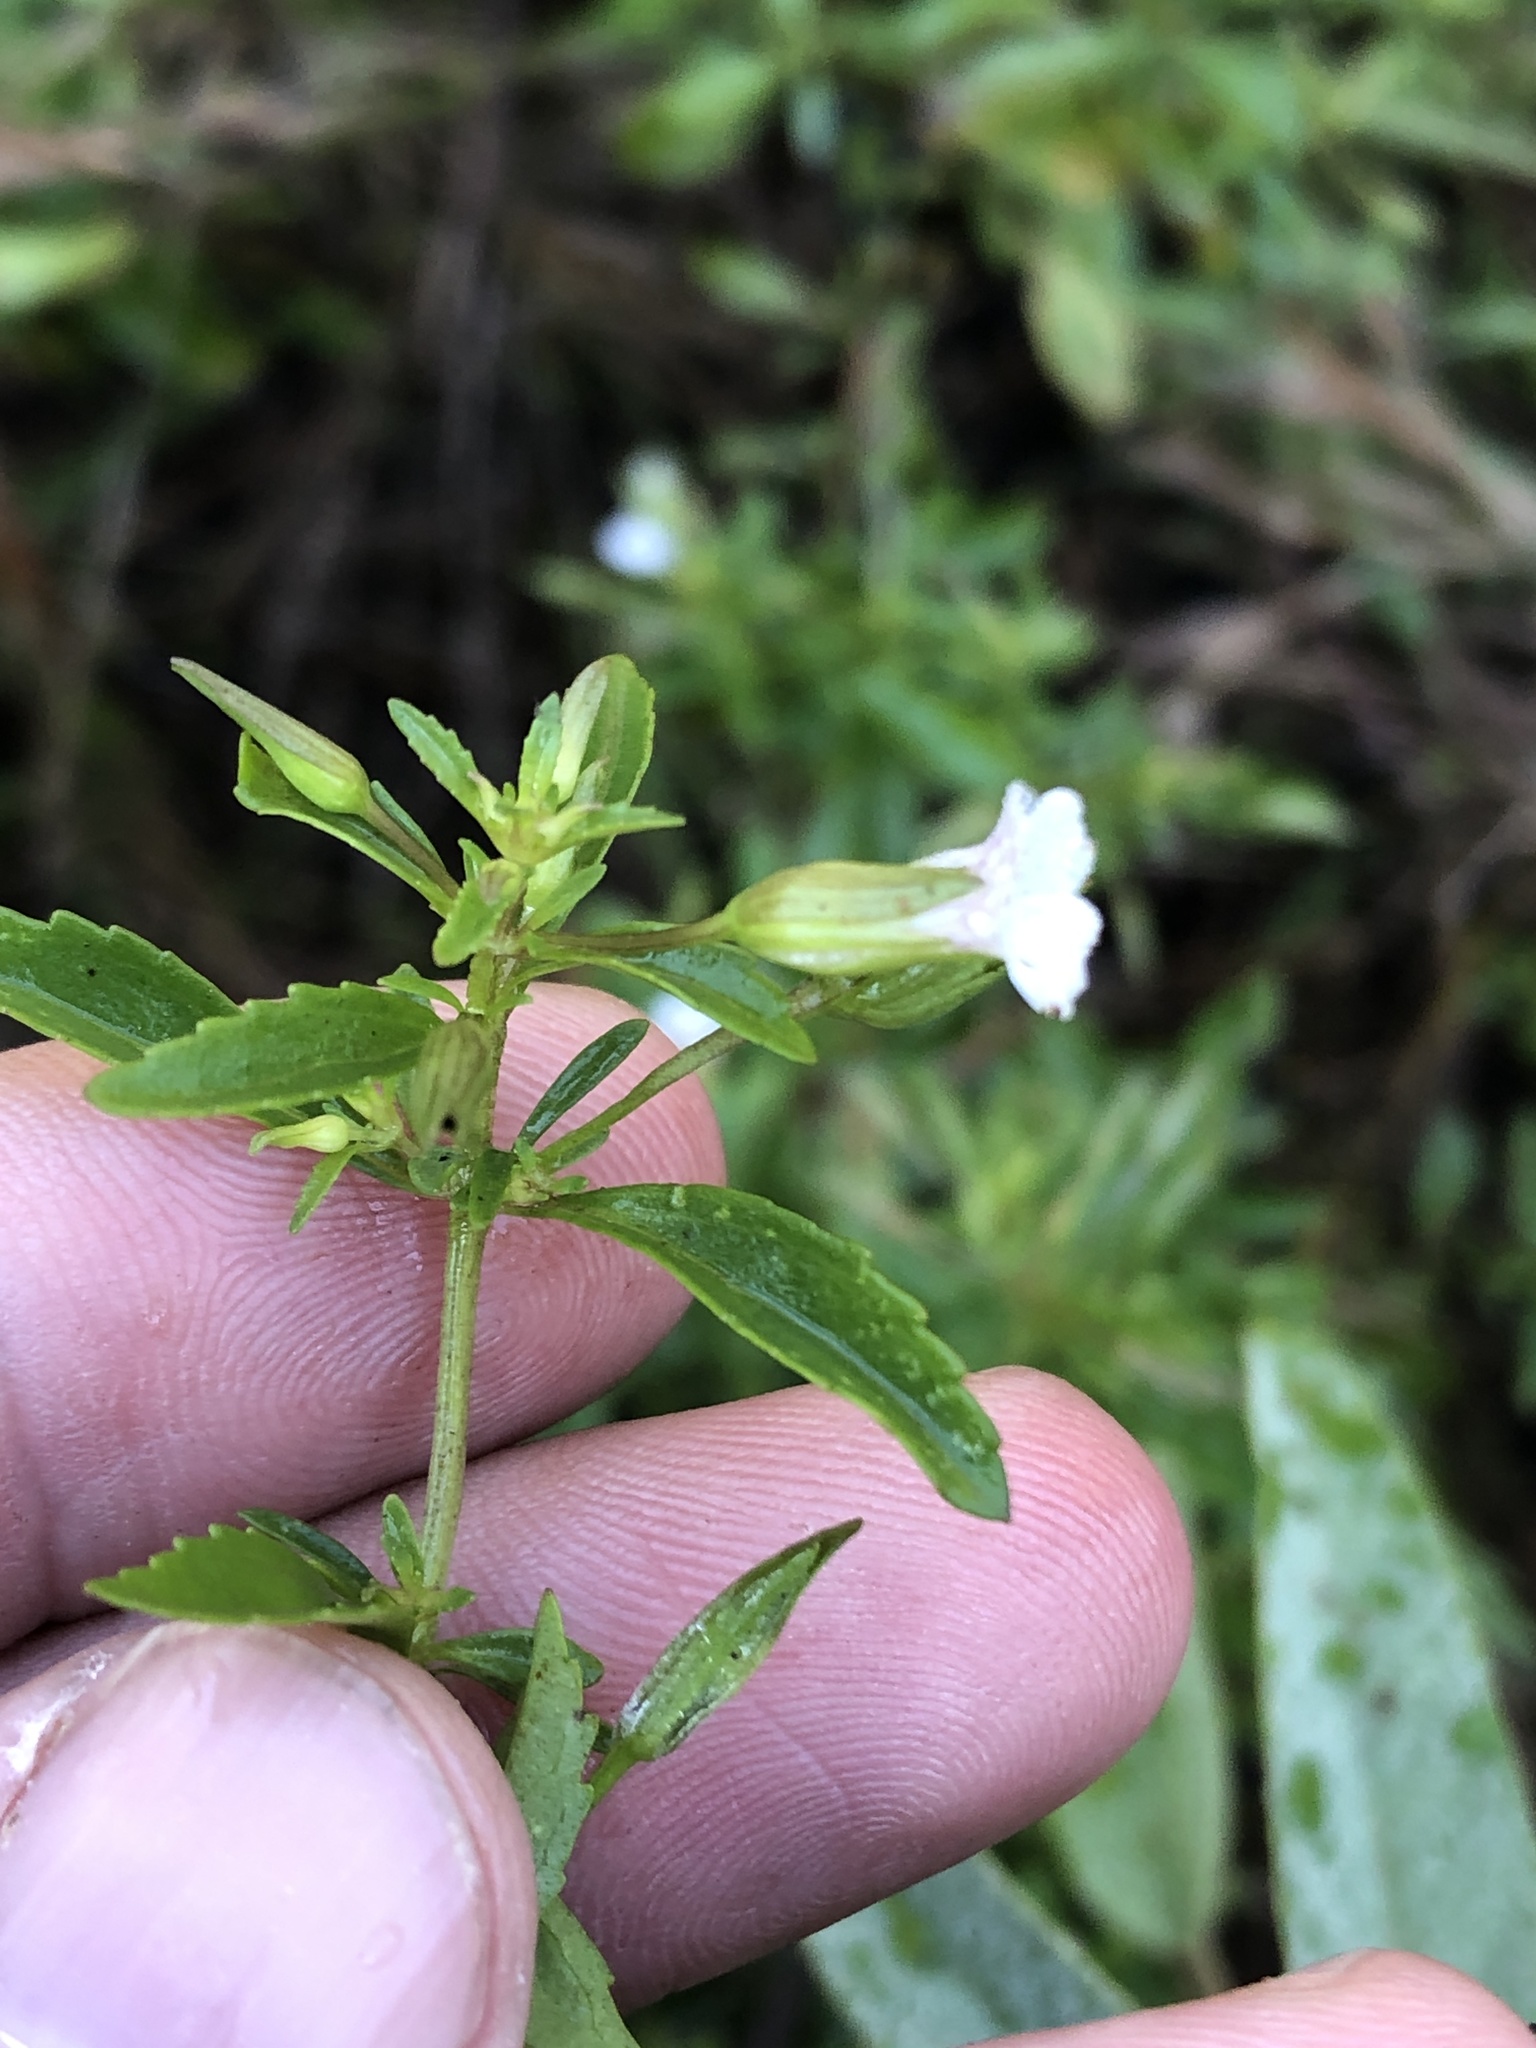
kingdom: Plantae
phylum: Tracheophyta
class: Magnoliopsida
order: Lamiales
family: Plantaginaceae
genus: Mecardonia
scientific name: Mecardonia acuminata
